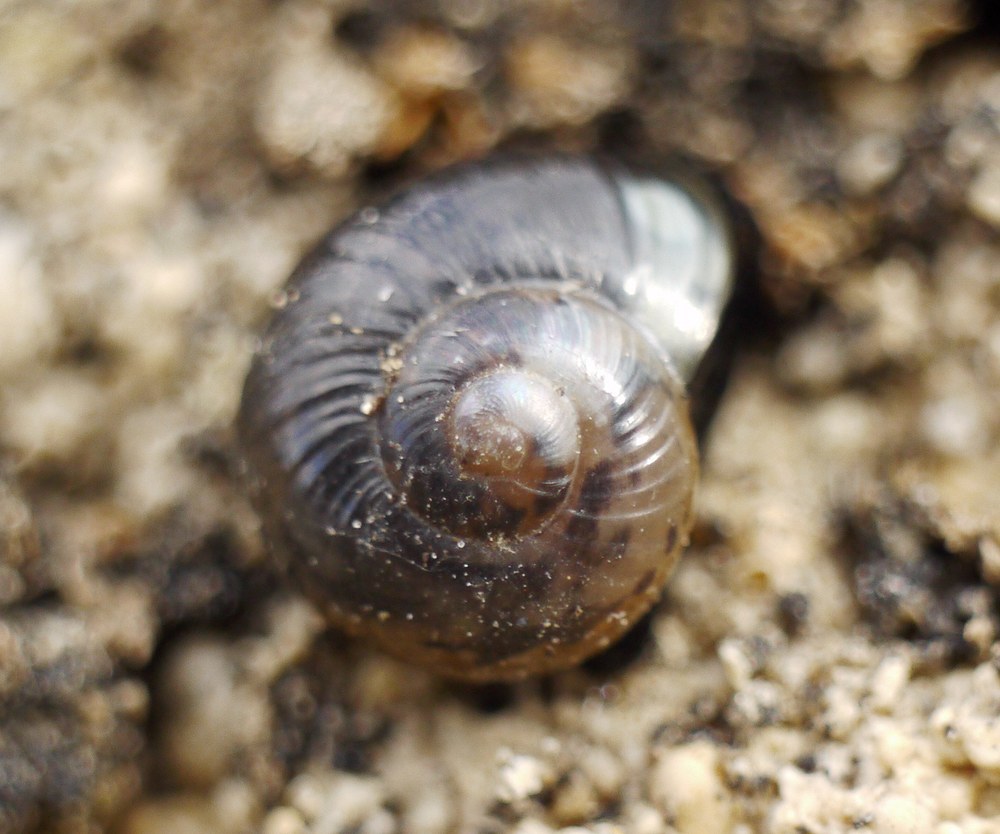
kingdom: Animalia
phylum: Mollusca
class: Gastropoda
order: Stylommatophora
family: Vitrinidae
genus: Oligolimax
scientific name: Oligolimax annularis
